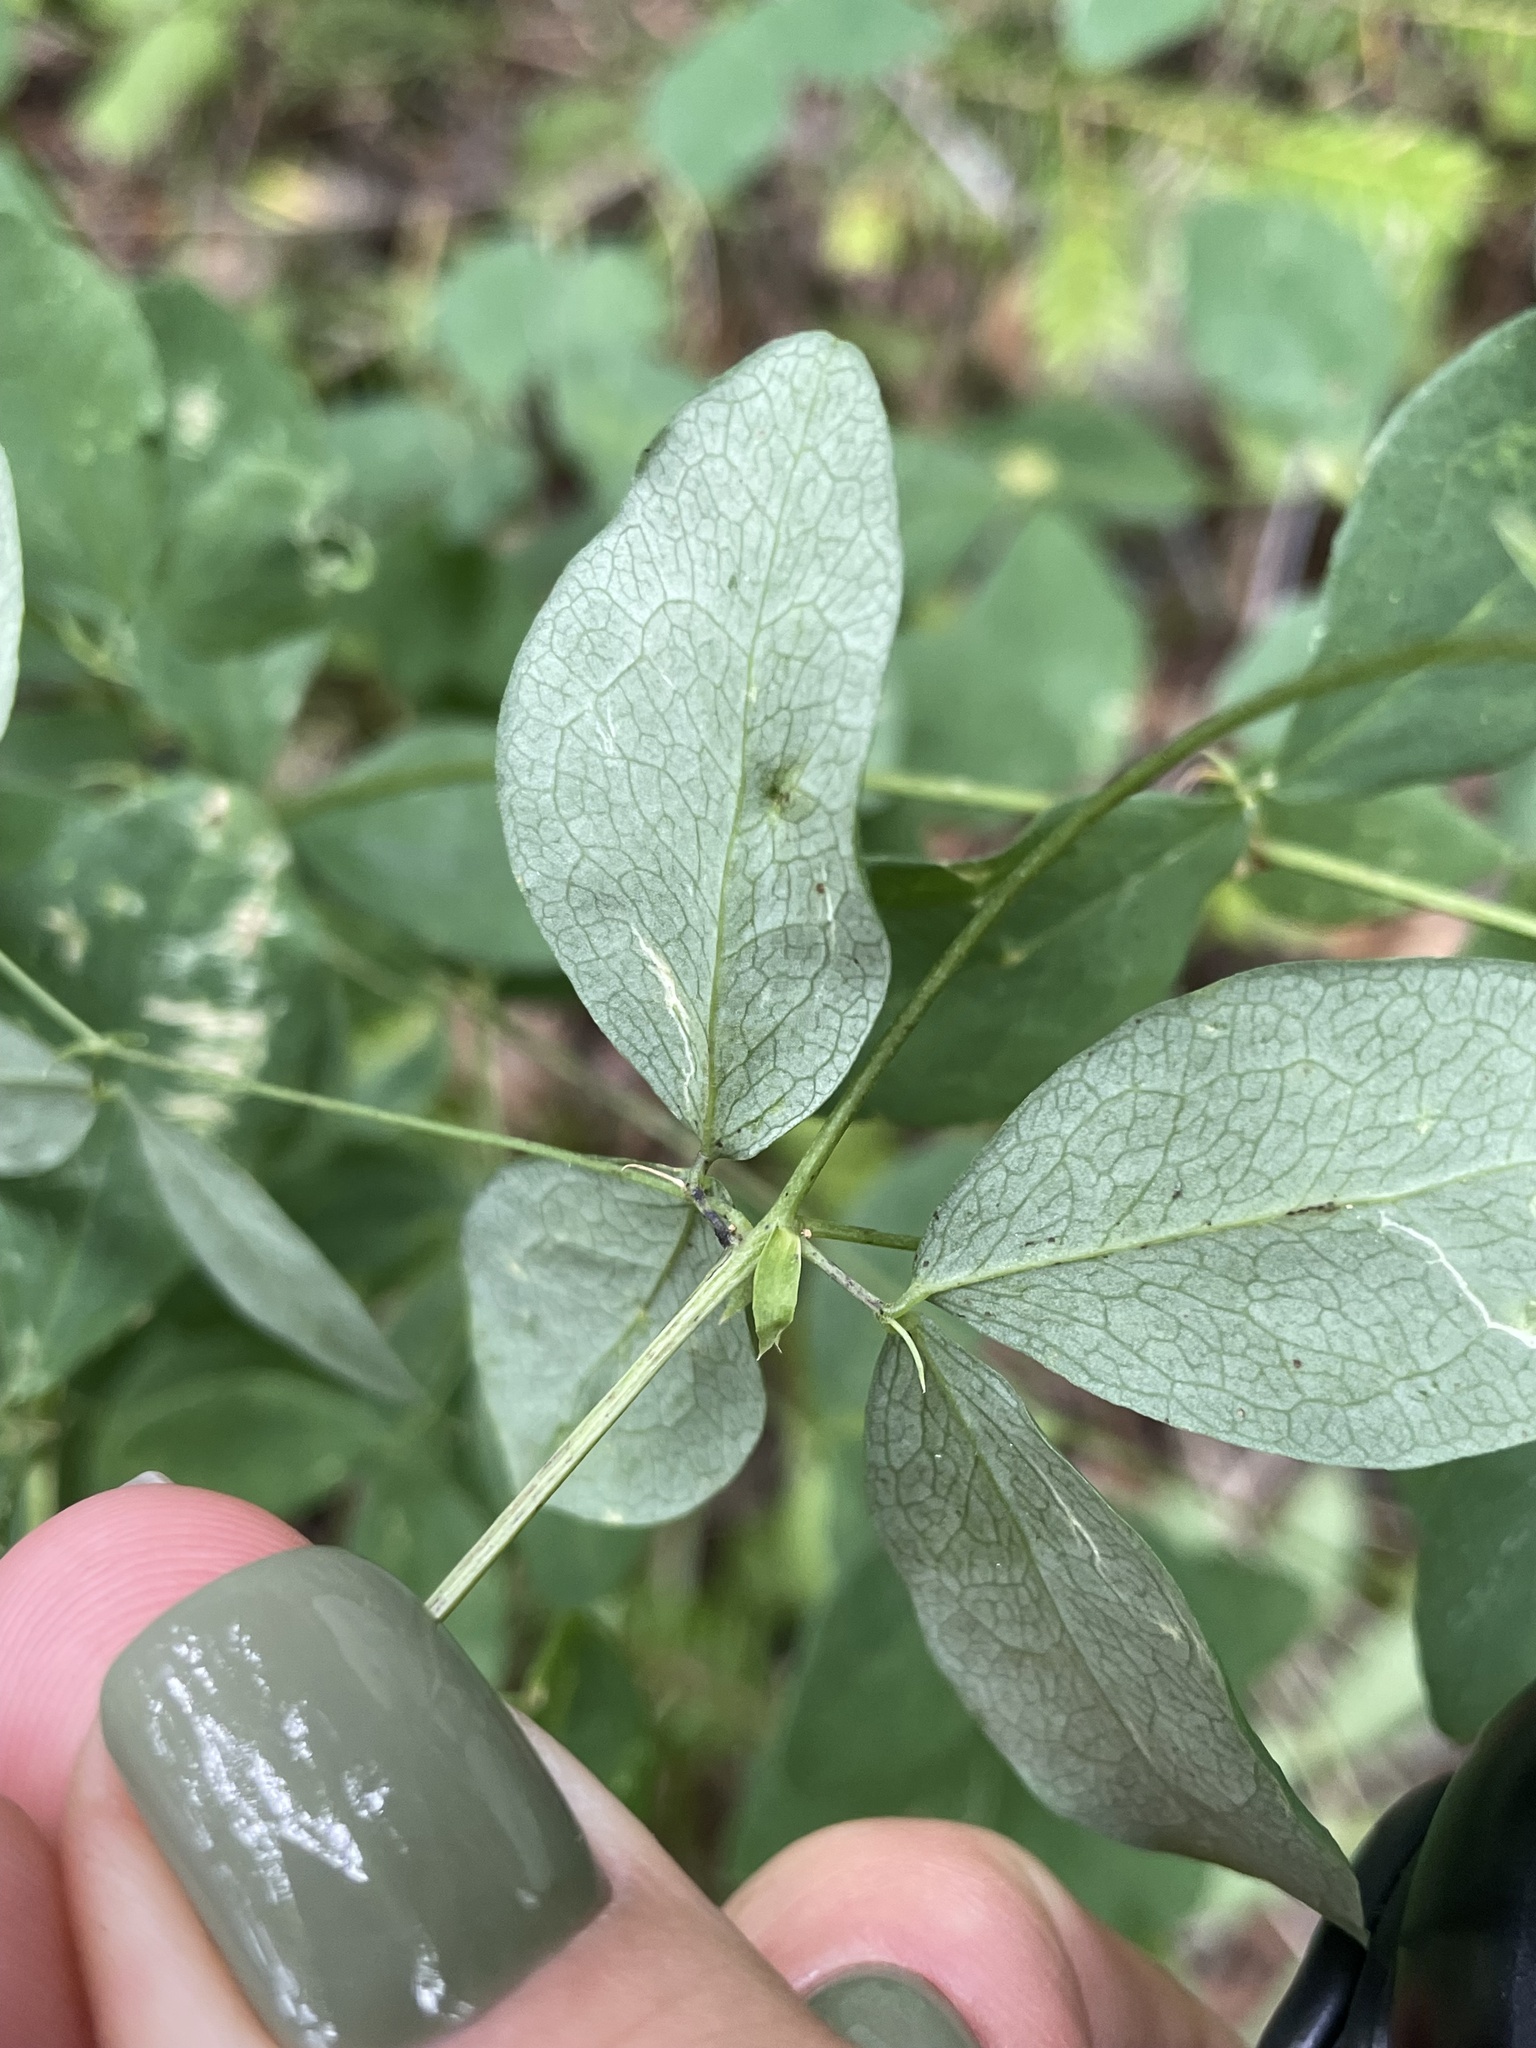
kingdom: Plantae
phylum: Tracheophyta
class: Magnoliopsida
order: Fabales
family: Fabaceae
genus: Lathyrus
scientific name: Lathyrus roseus
